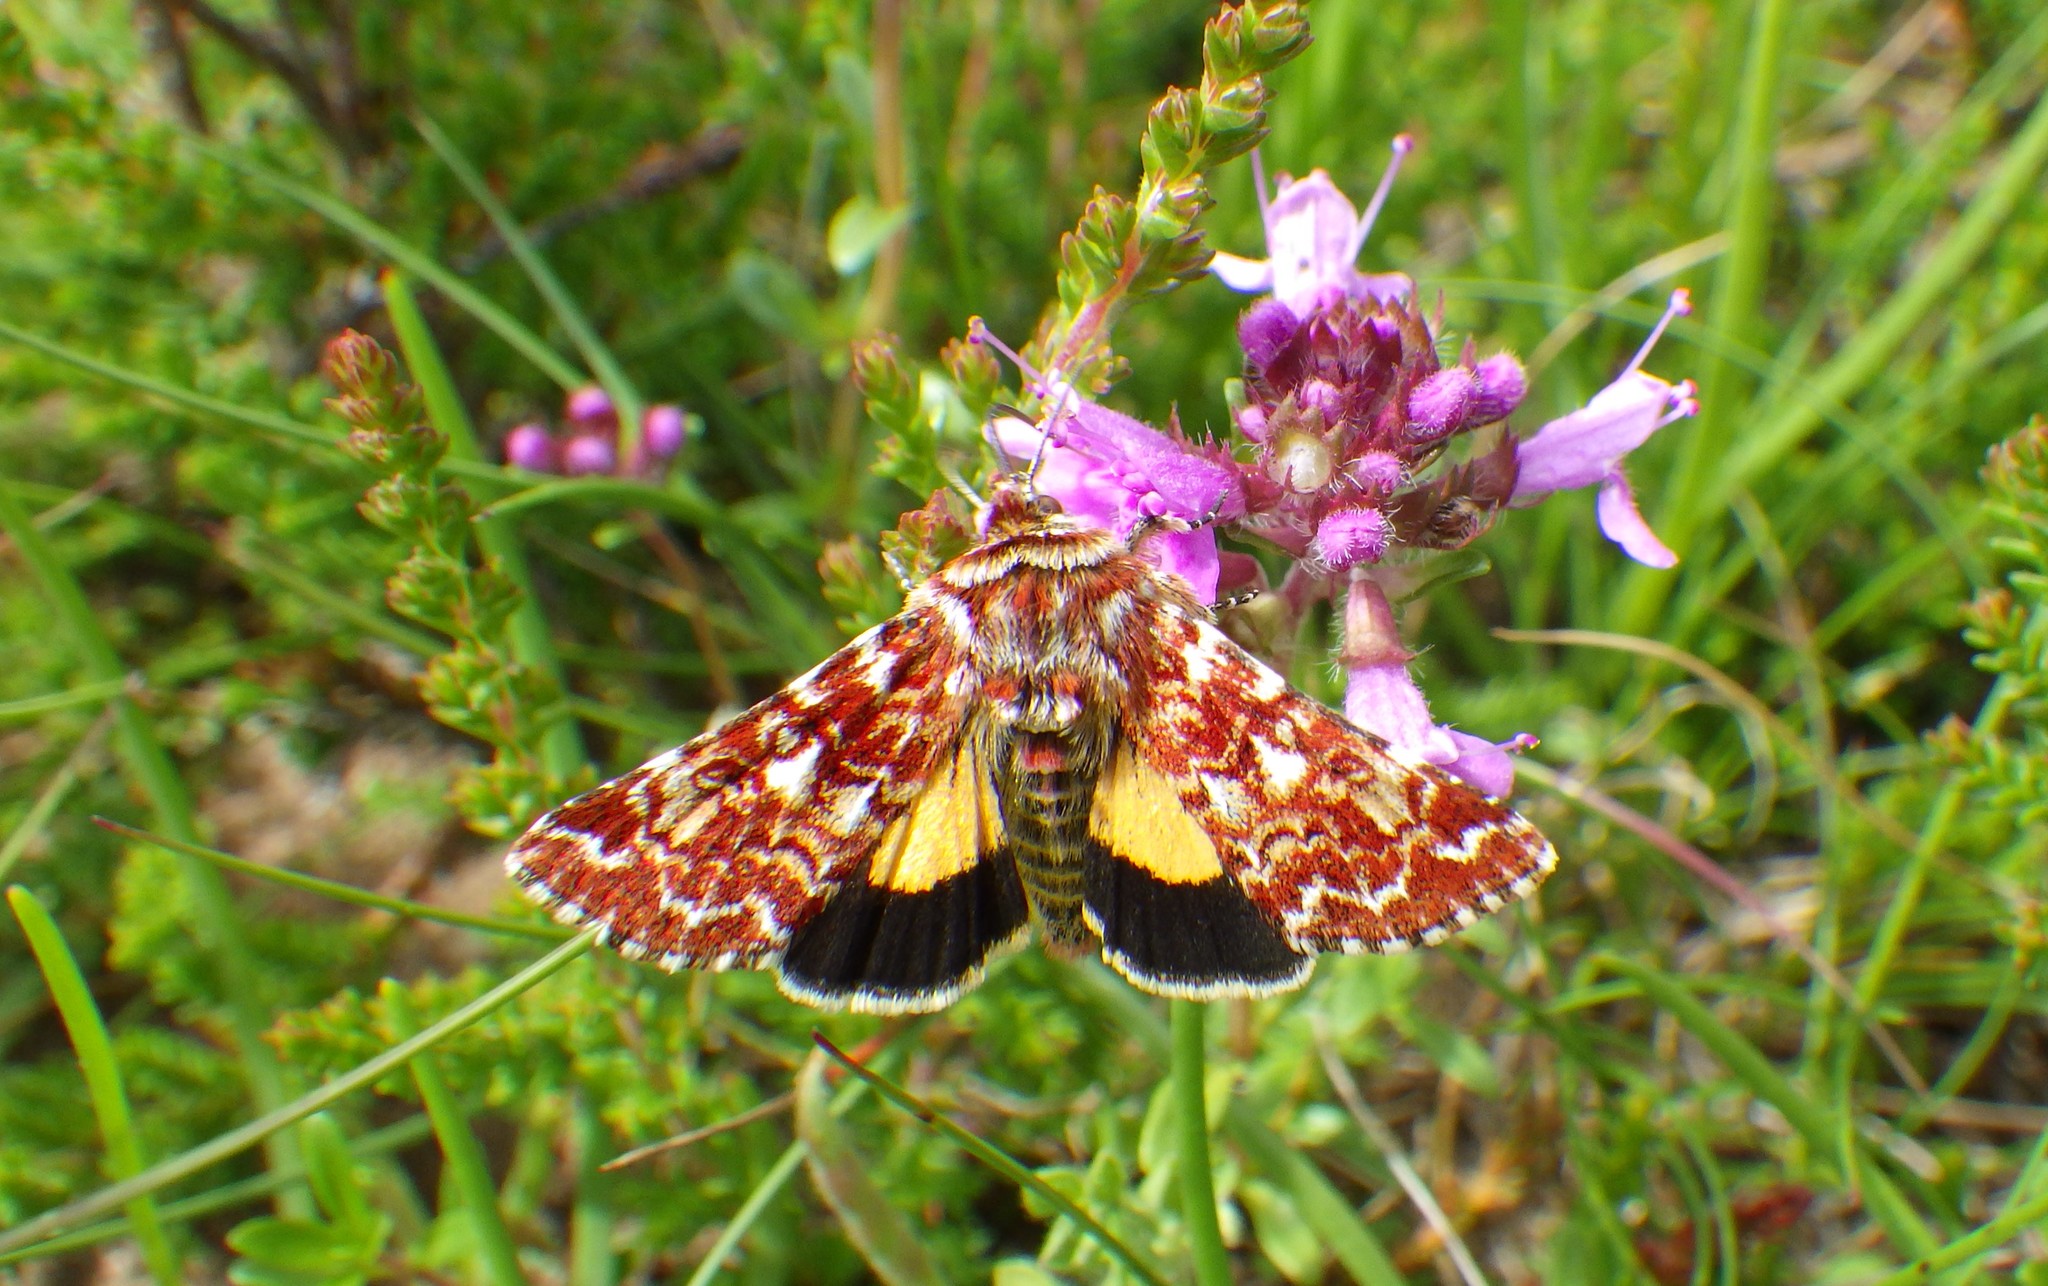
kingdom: Animalia
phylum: Arthropoda
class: Insecta
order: Lepidoptera
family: Noctuidae
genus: Anarta
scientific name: Anarta myrtilli
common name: Beautiful yellow underwing
